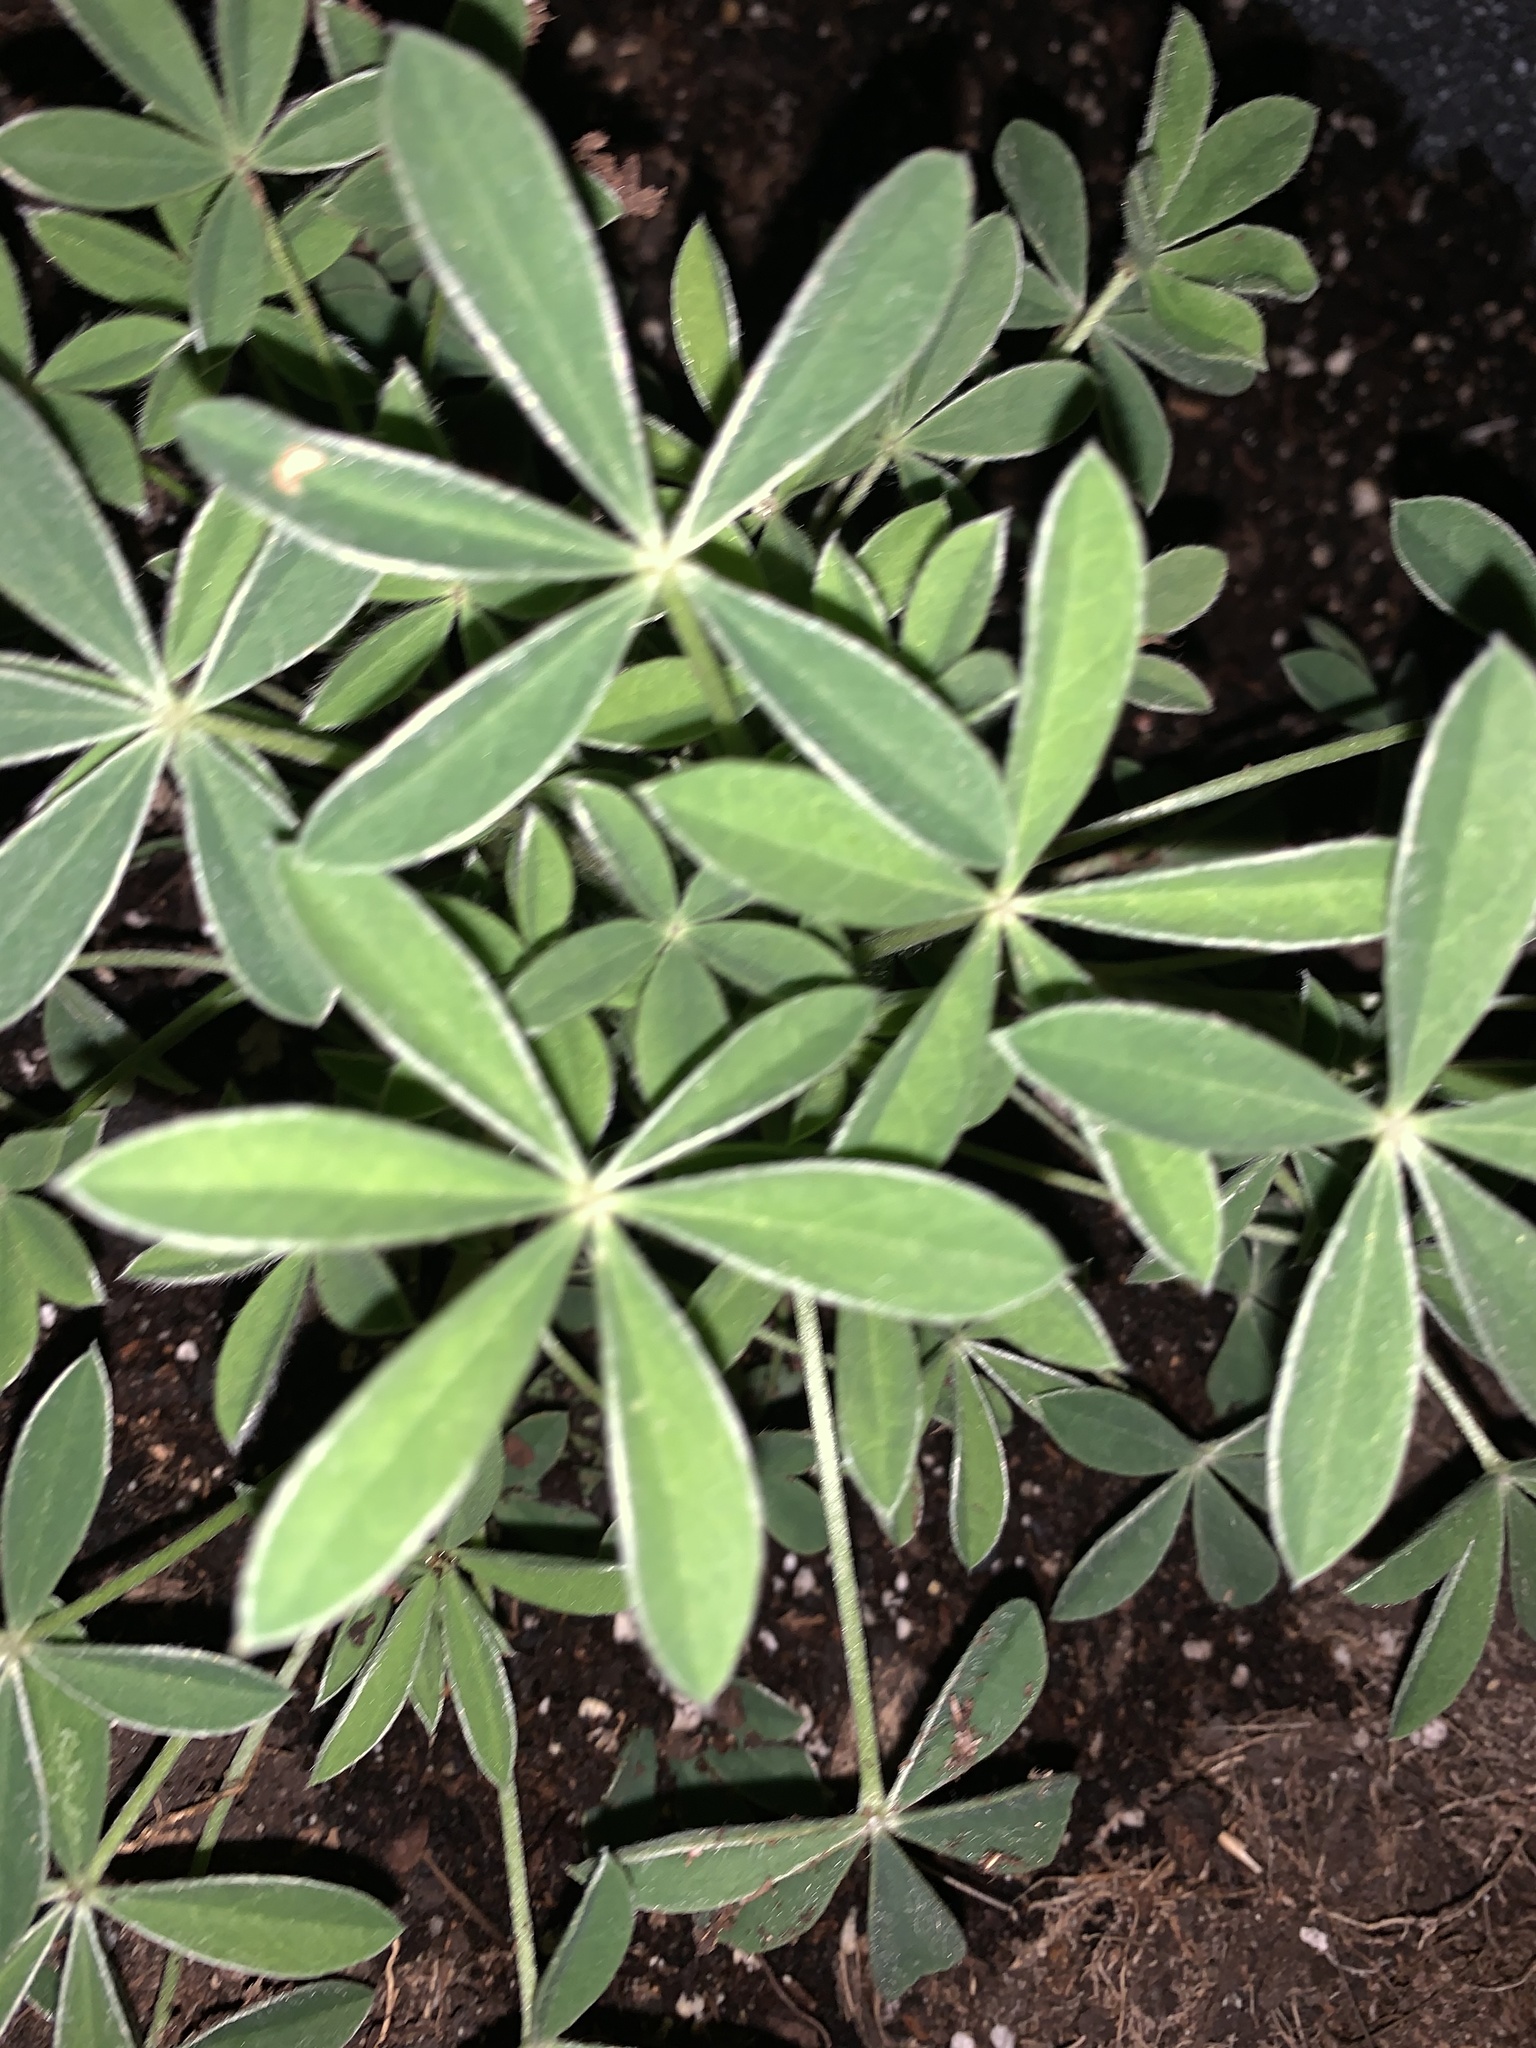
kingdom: Plantae
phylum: Tracheophyta
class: Magnoliopsida
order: Fabales
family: Fabaceae
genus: Lupinus
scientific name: Lupinus texensis
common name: Texas bluebonnet
